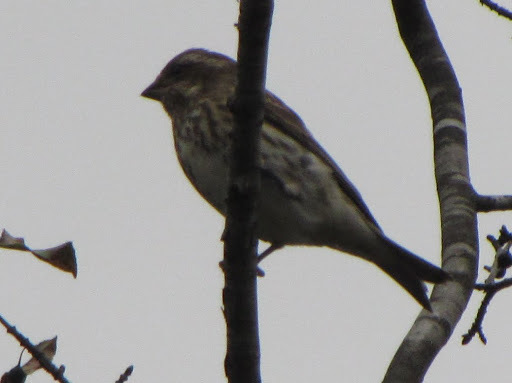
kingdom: Animalia
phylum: Chordata
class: Aves
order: Passeriformes
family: Fringillidae
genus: Haemorhous
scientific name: Haemorhous purpureus
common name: Purple finch
